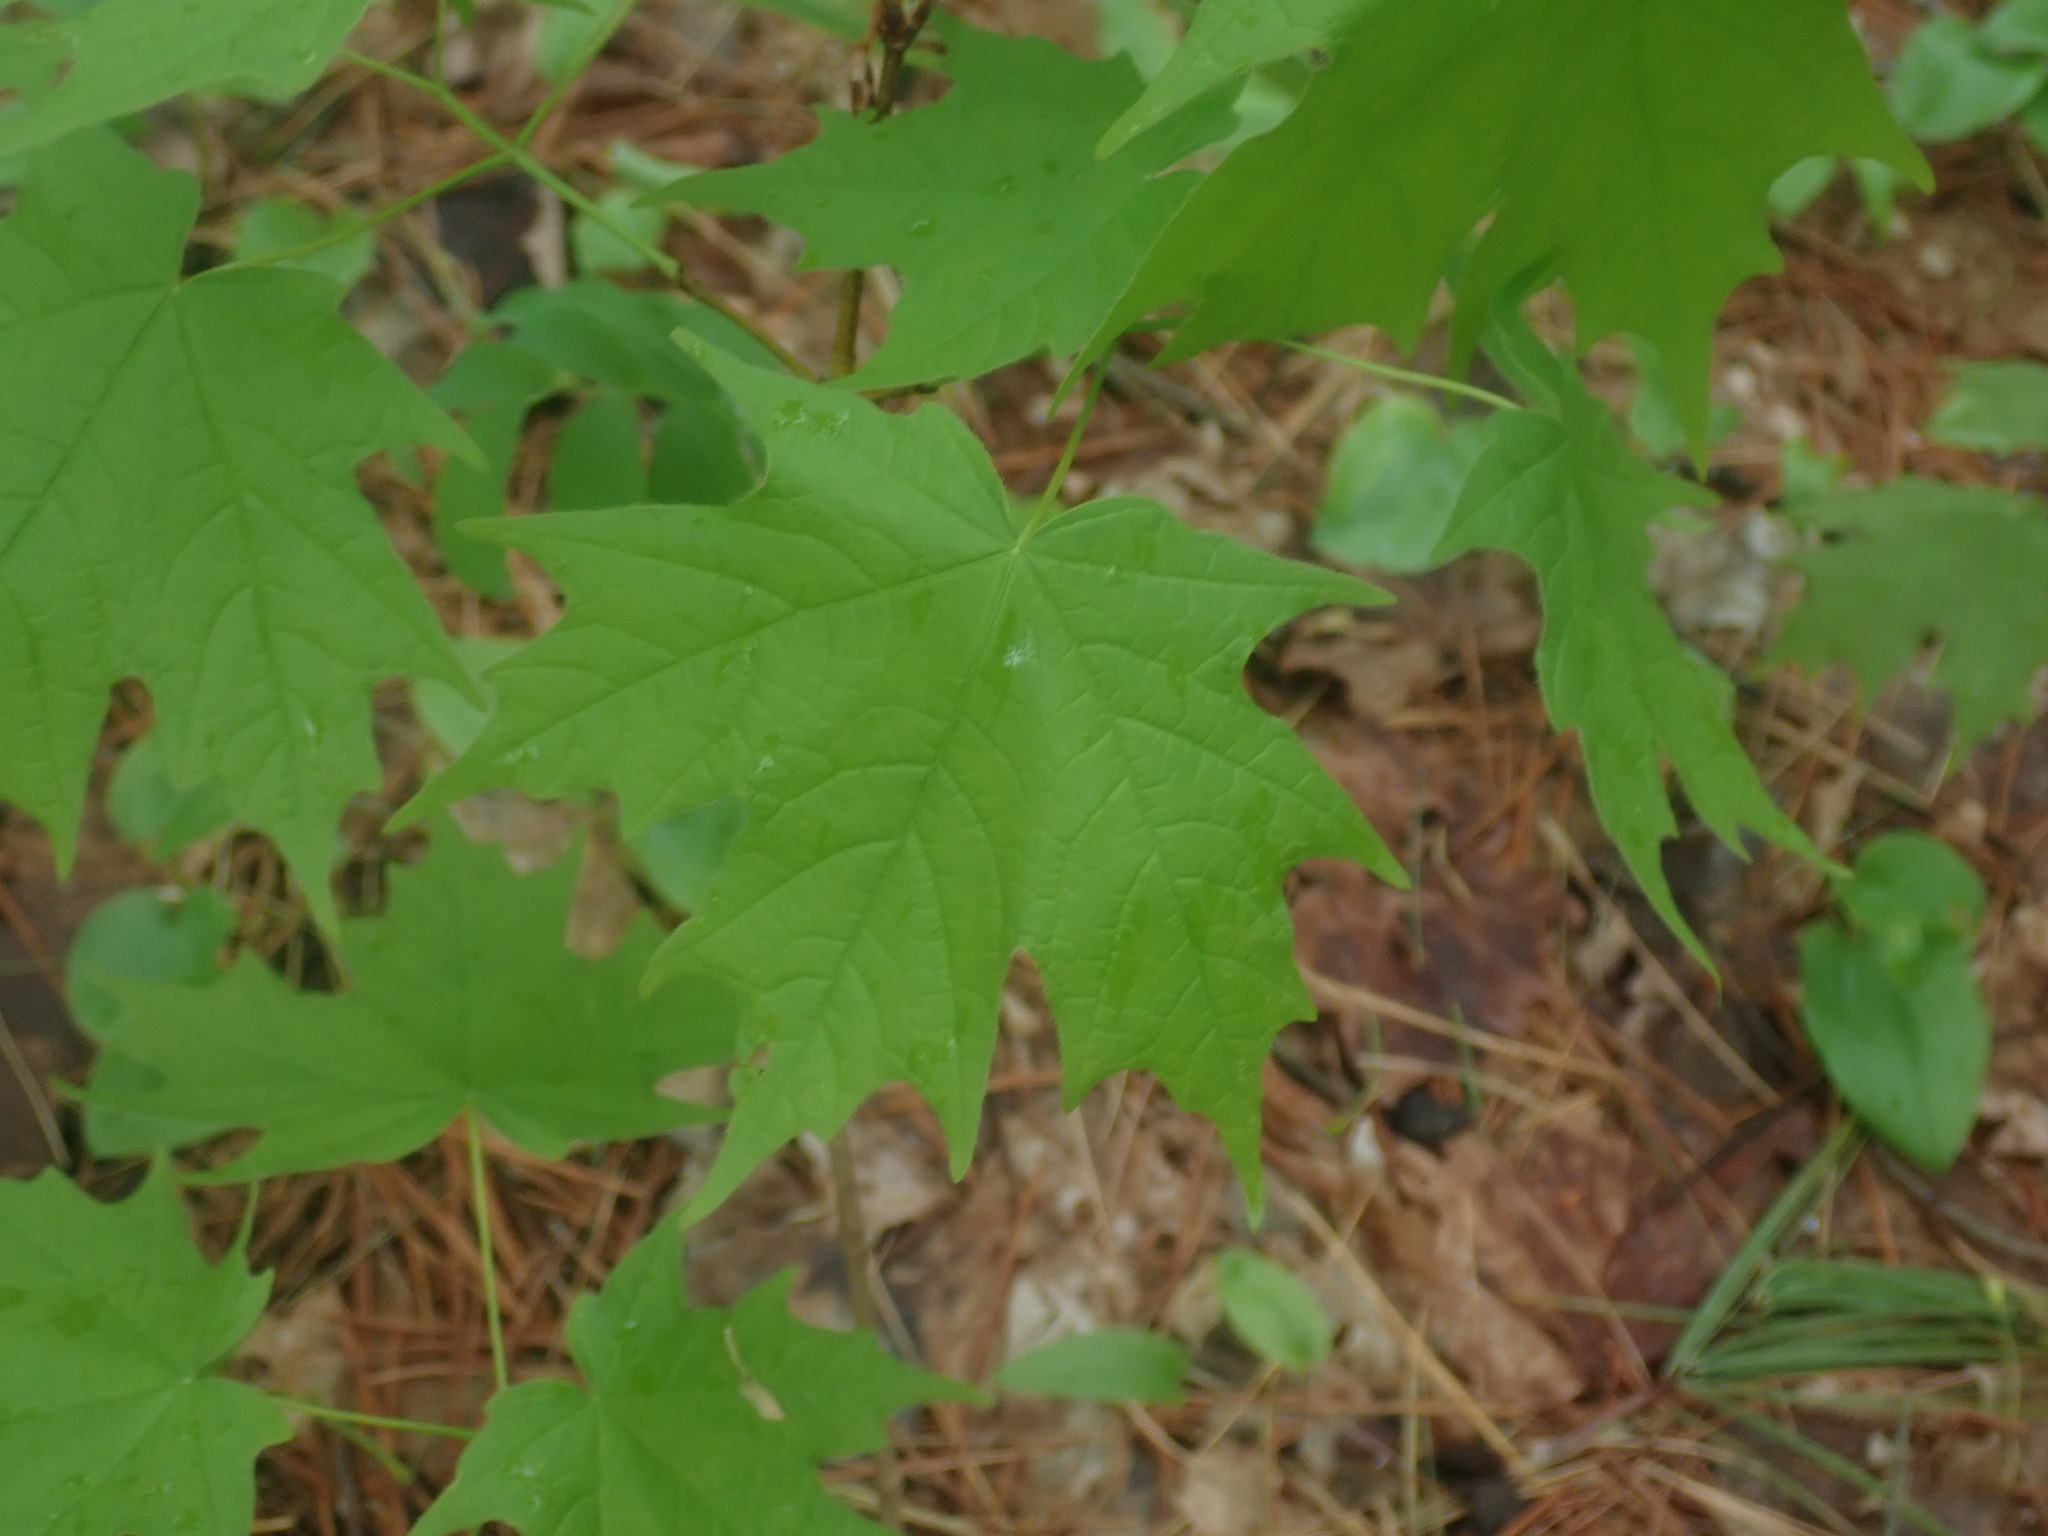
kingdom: Plantae
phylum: Tracheophyta
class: Magnoliopsida
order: Sapindales
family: Sapindaceae
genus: Acer
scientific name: Acer saccharum
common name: Sugar maple
